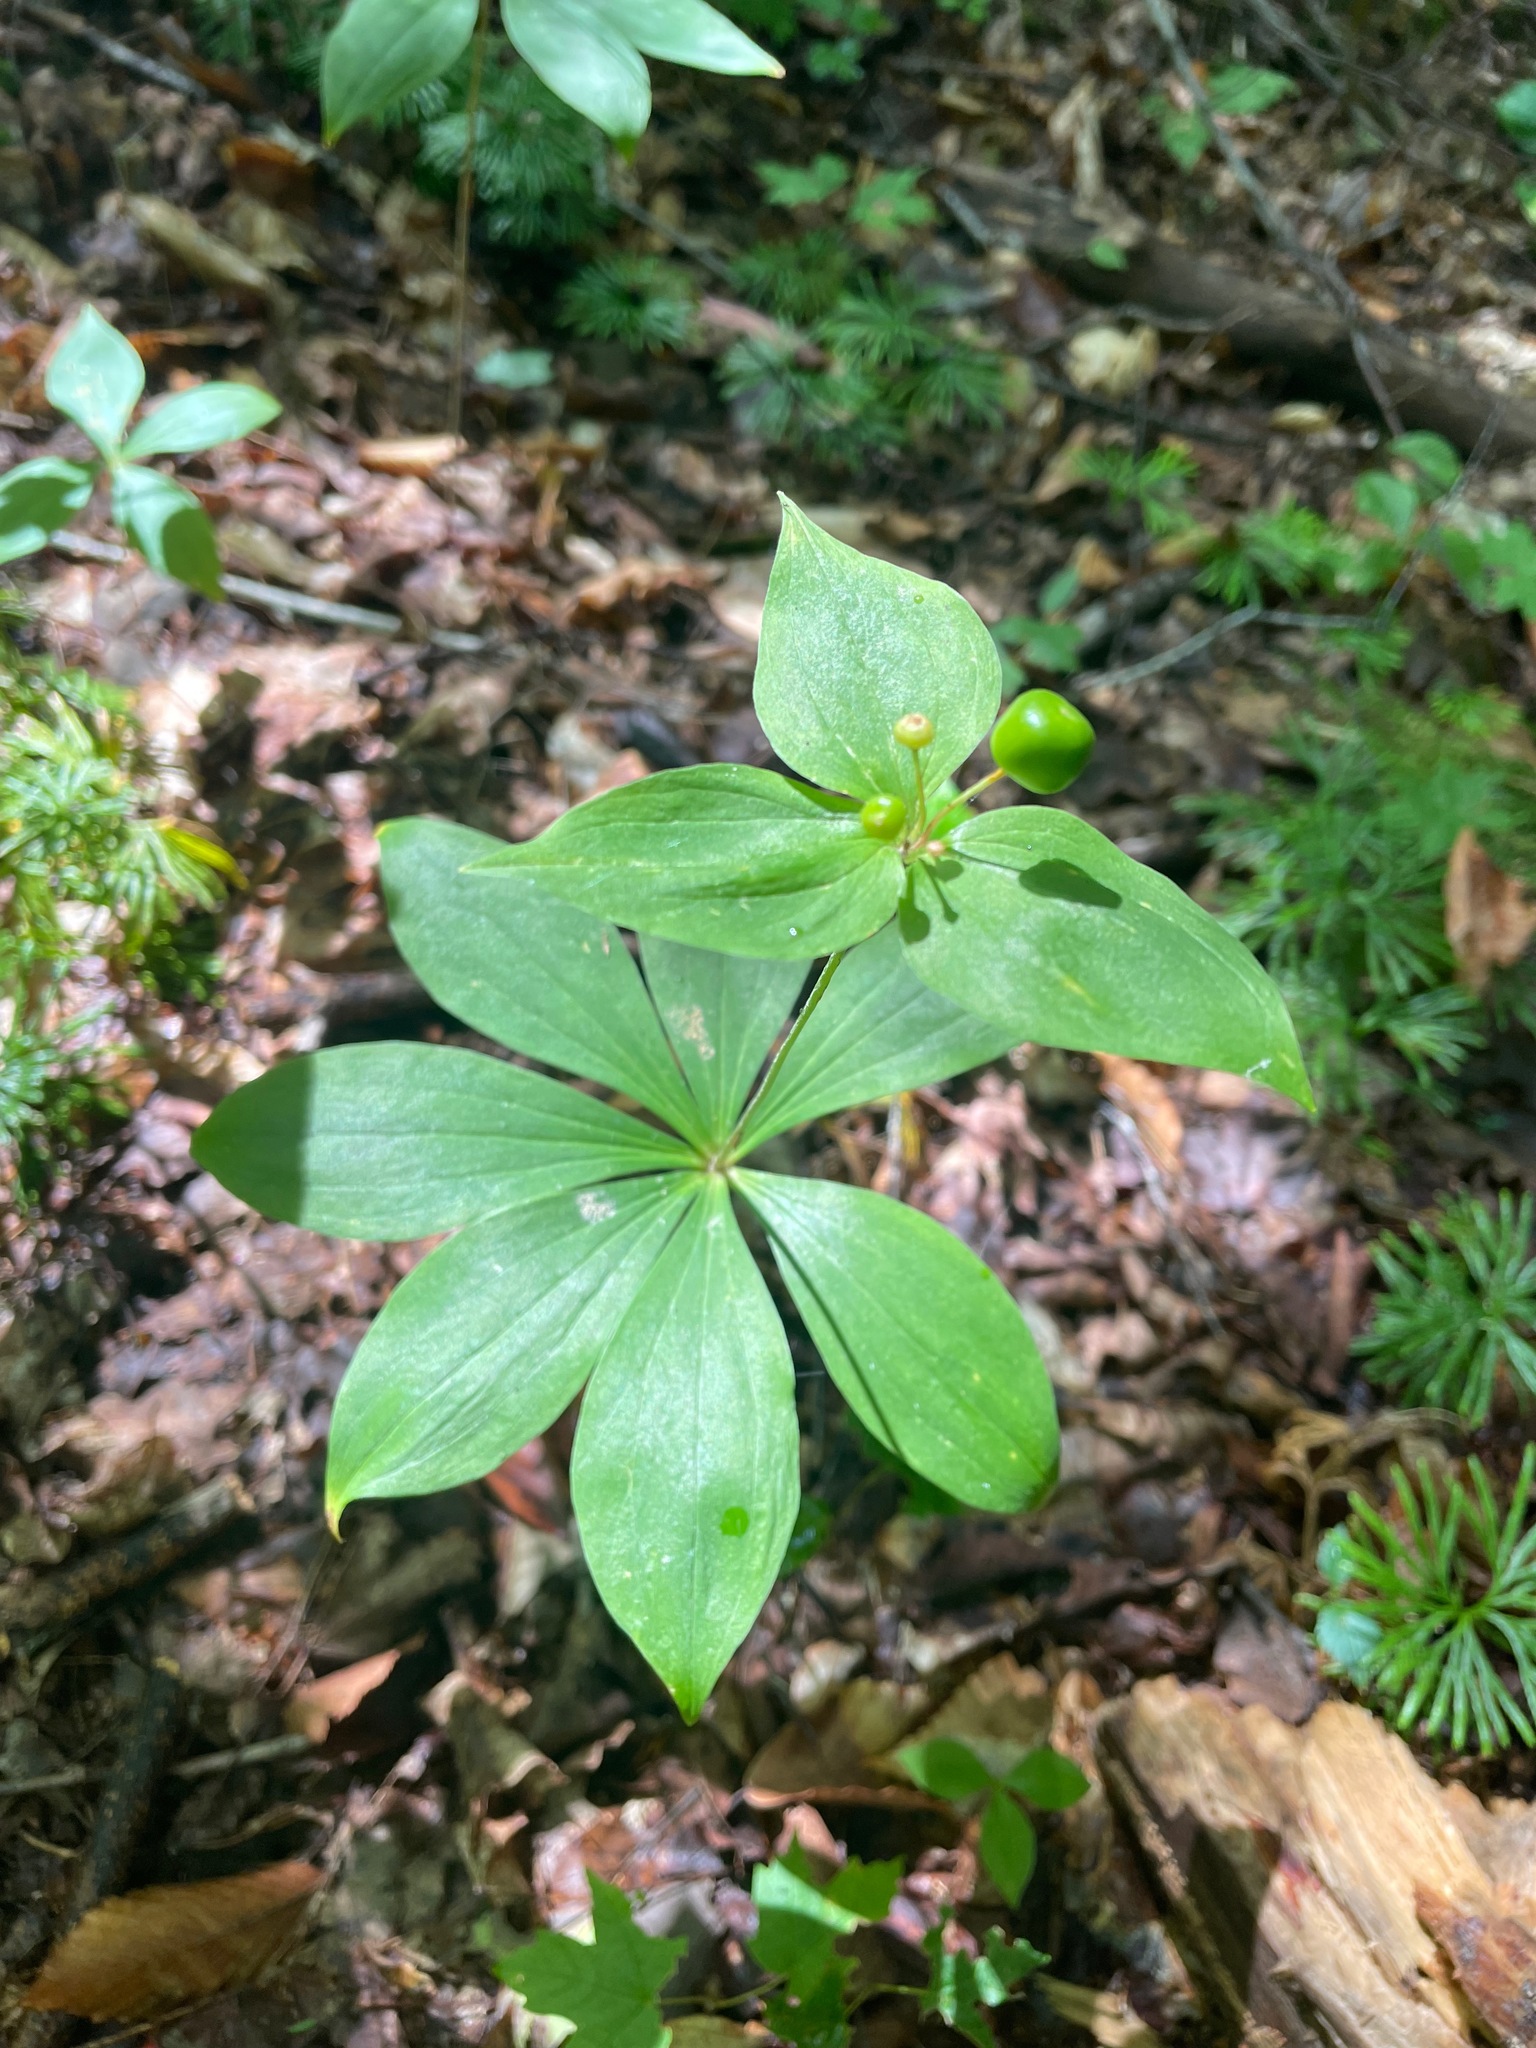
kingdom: Plantae
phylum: Tracheophyta
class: Liliopsida
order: Liliales
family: Liliaceae
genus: Medeola
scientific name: Medeola virginiana
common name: Indian cucumber-root
